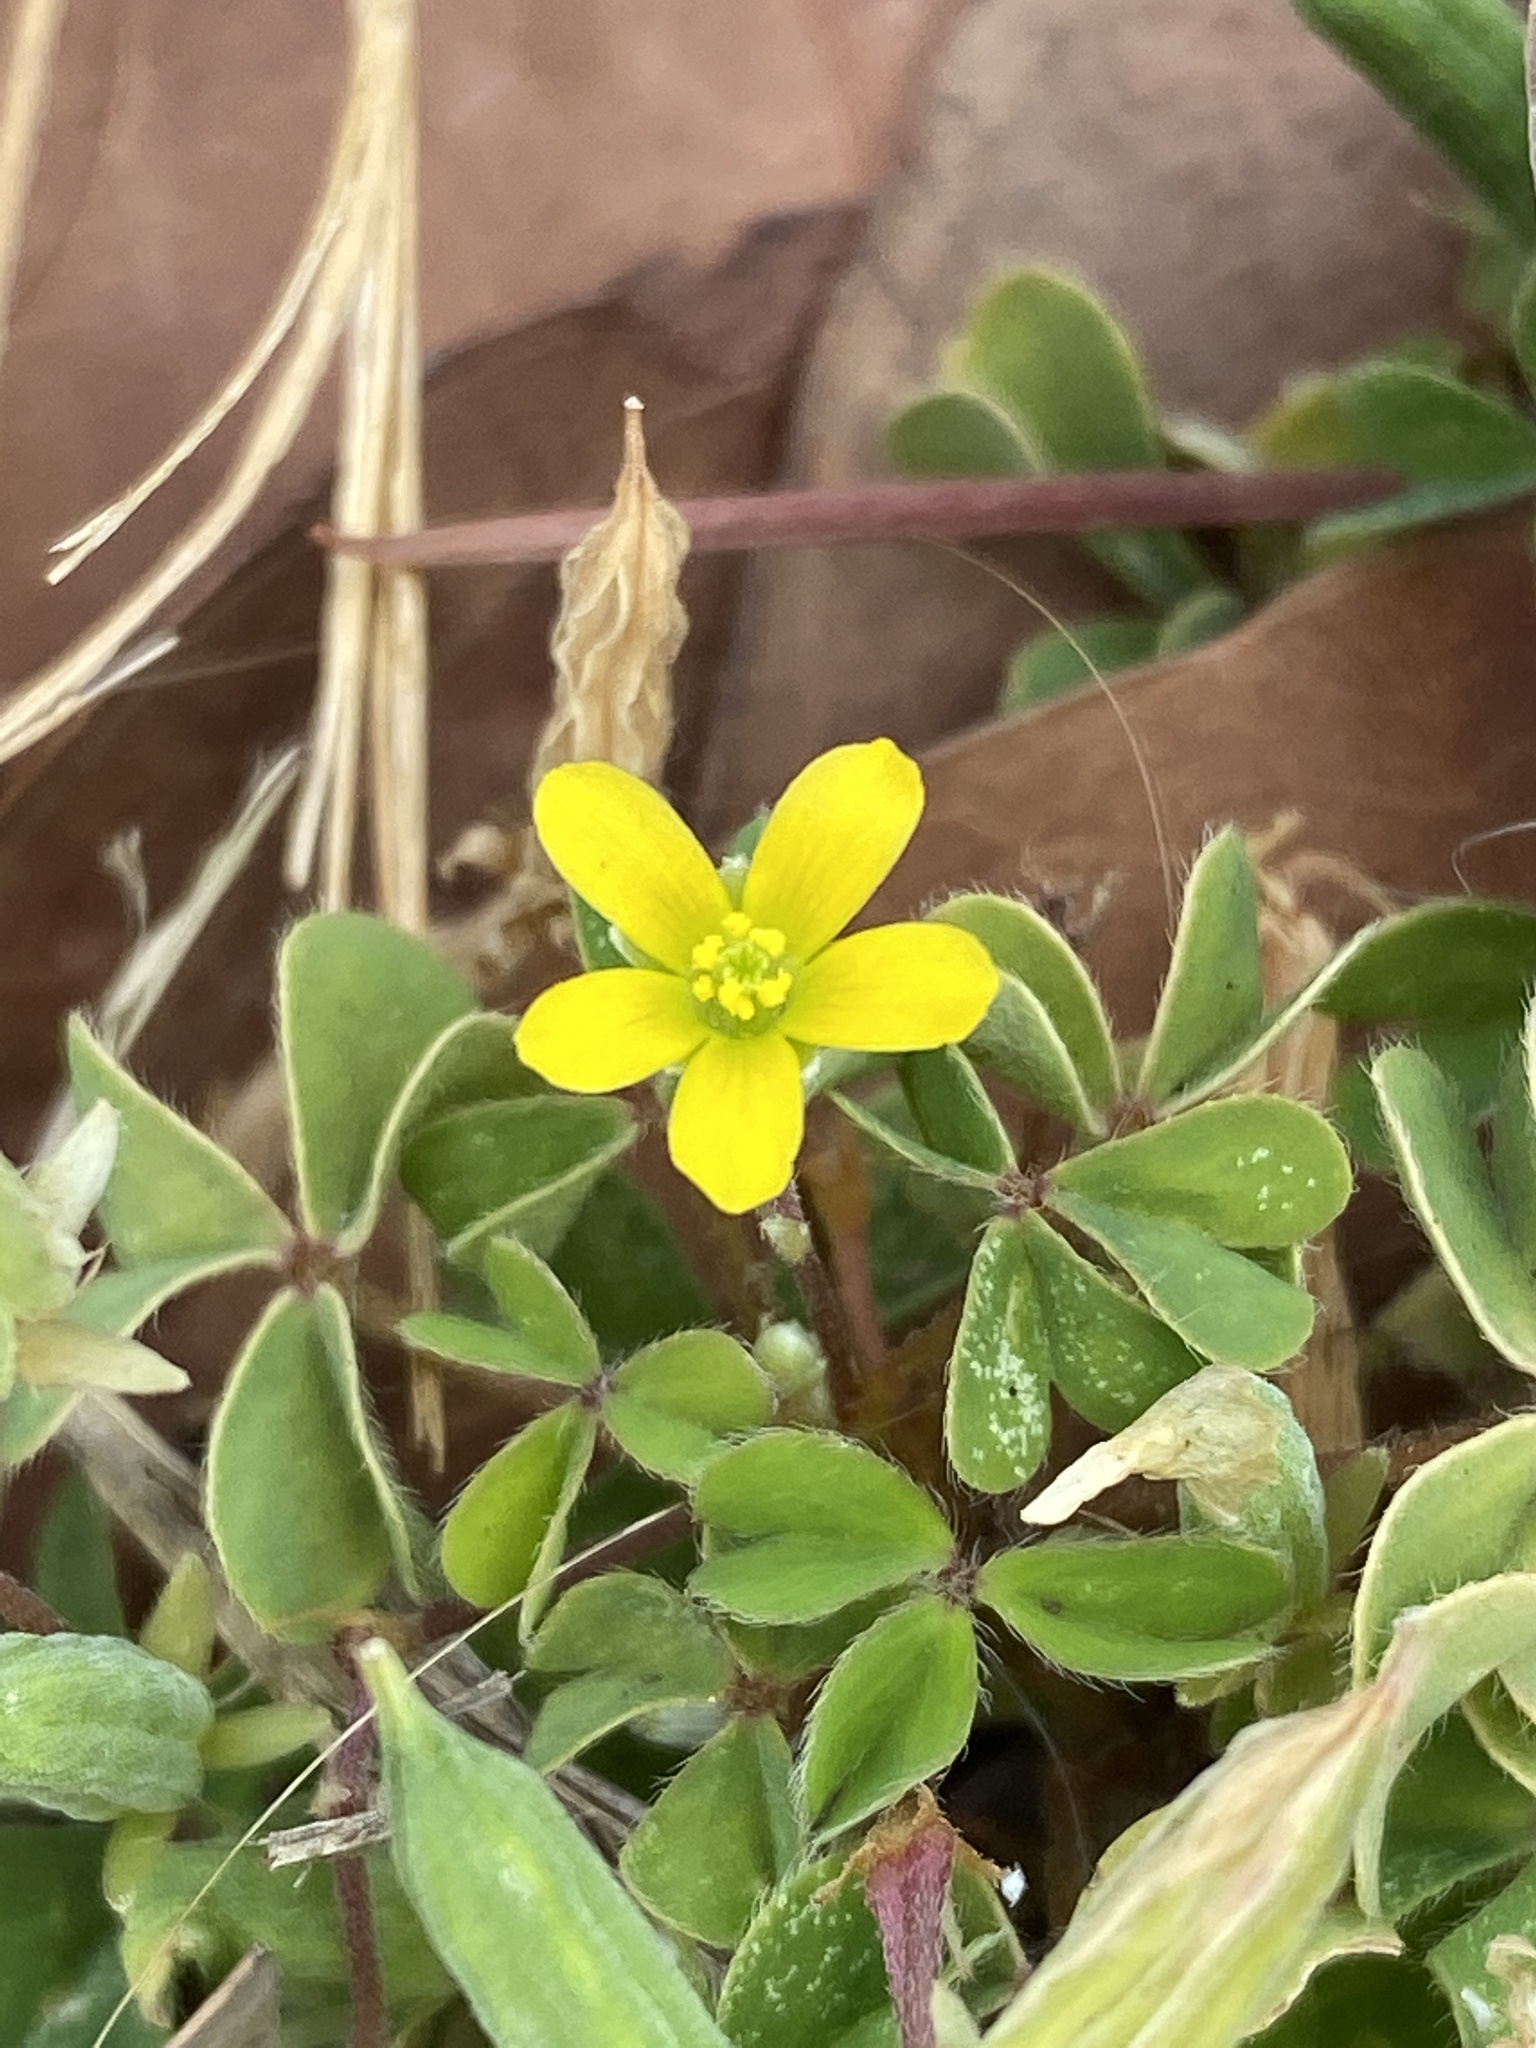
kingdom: Plantae
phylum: Tracheophyta
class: Magnoliopsida
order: Oxalidales
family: Oxalidaceae
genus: Oxalis
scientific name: Oxalis corniculata
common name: Procumbent yellow-sorrel
